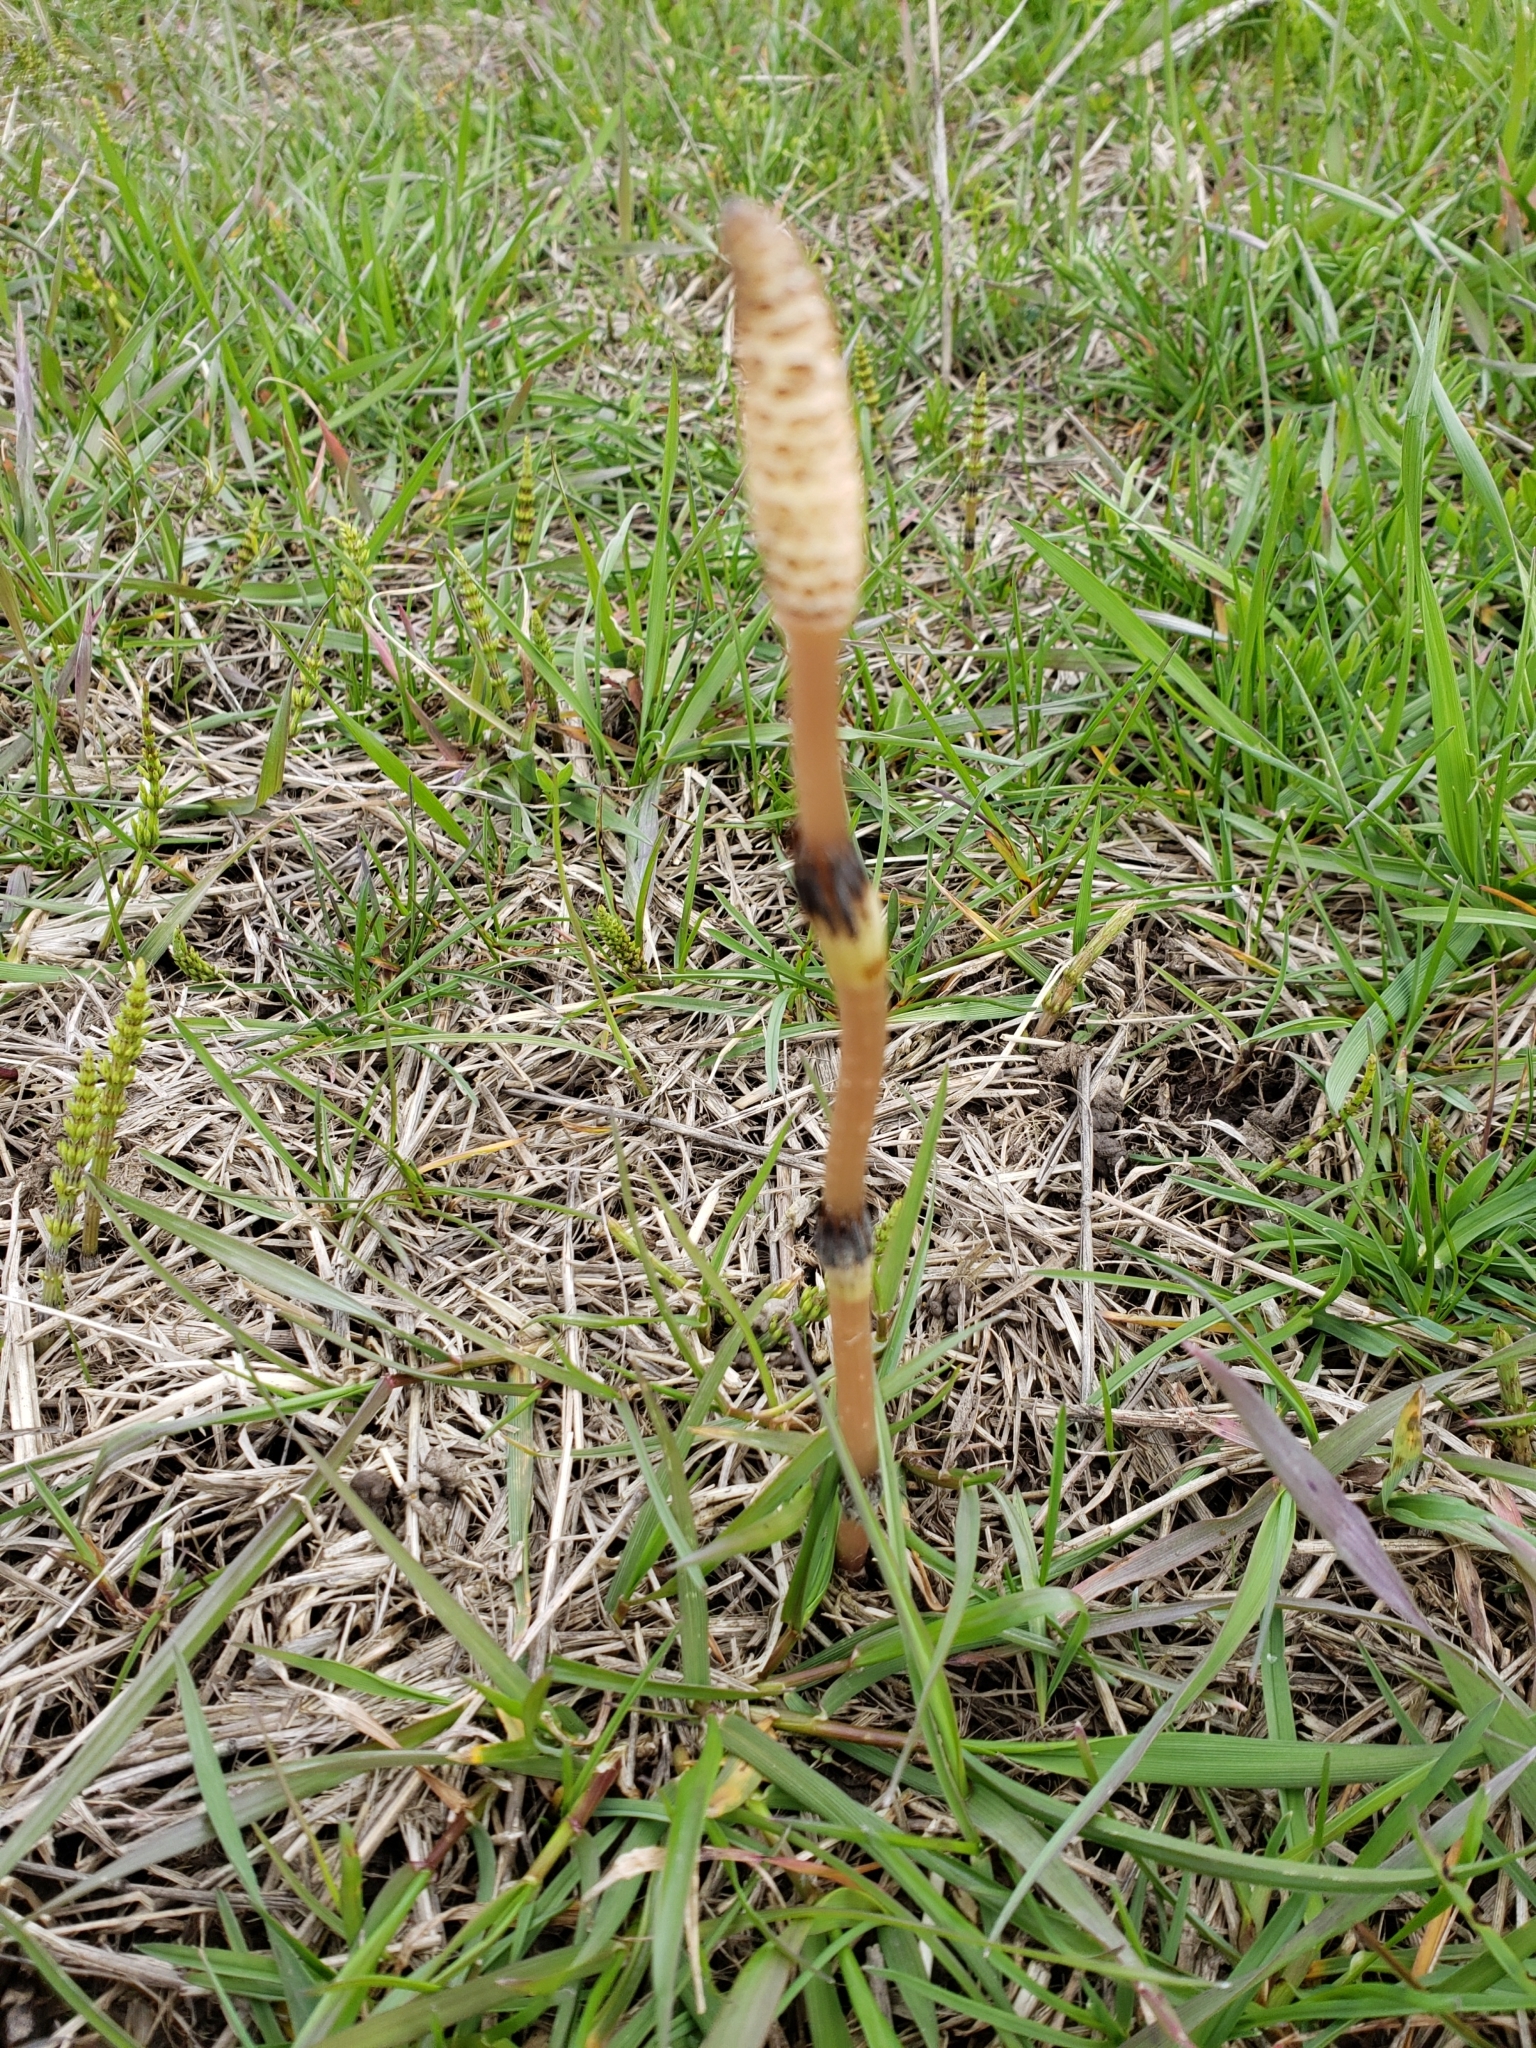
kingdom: Plantae
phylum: Tracheophyta
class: Polypodiopsida
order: Equisetales
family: Equisetaceae
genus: Equisetum
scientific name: Equisetum arvense
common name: Field horsetail
